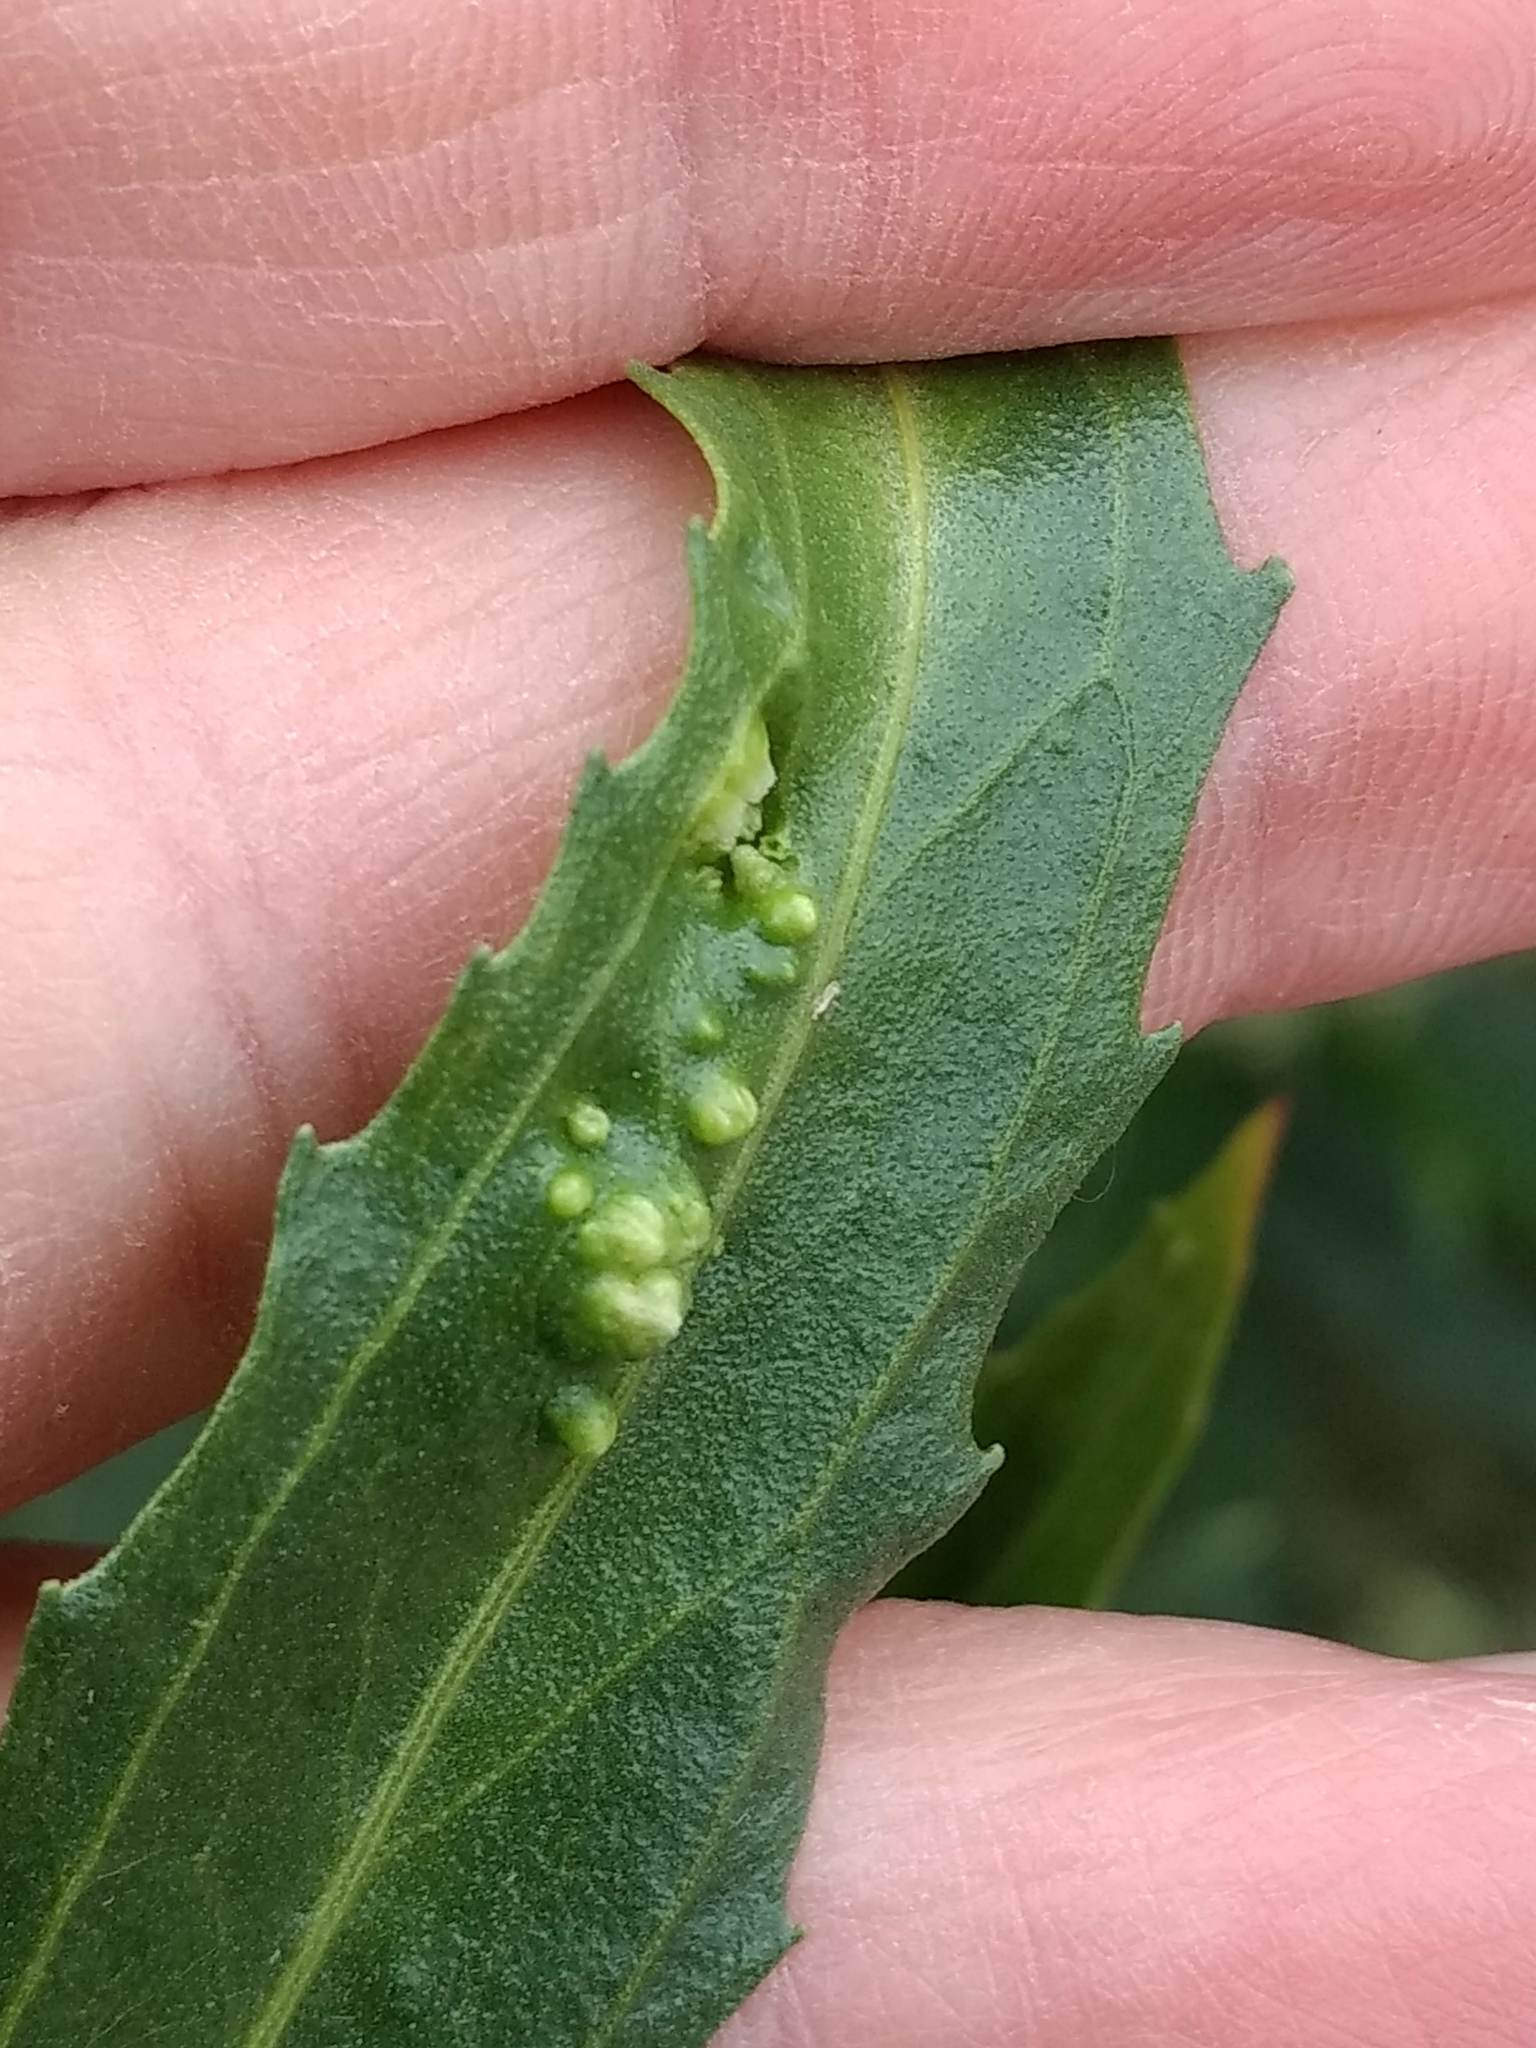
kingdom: Animalia
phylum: Arthropoda
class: Arachnida
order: Trombidiformes
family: Eriophyidae
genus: Aceria
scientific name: Aceria
